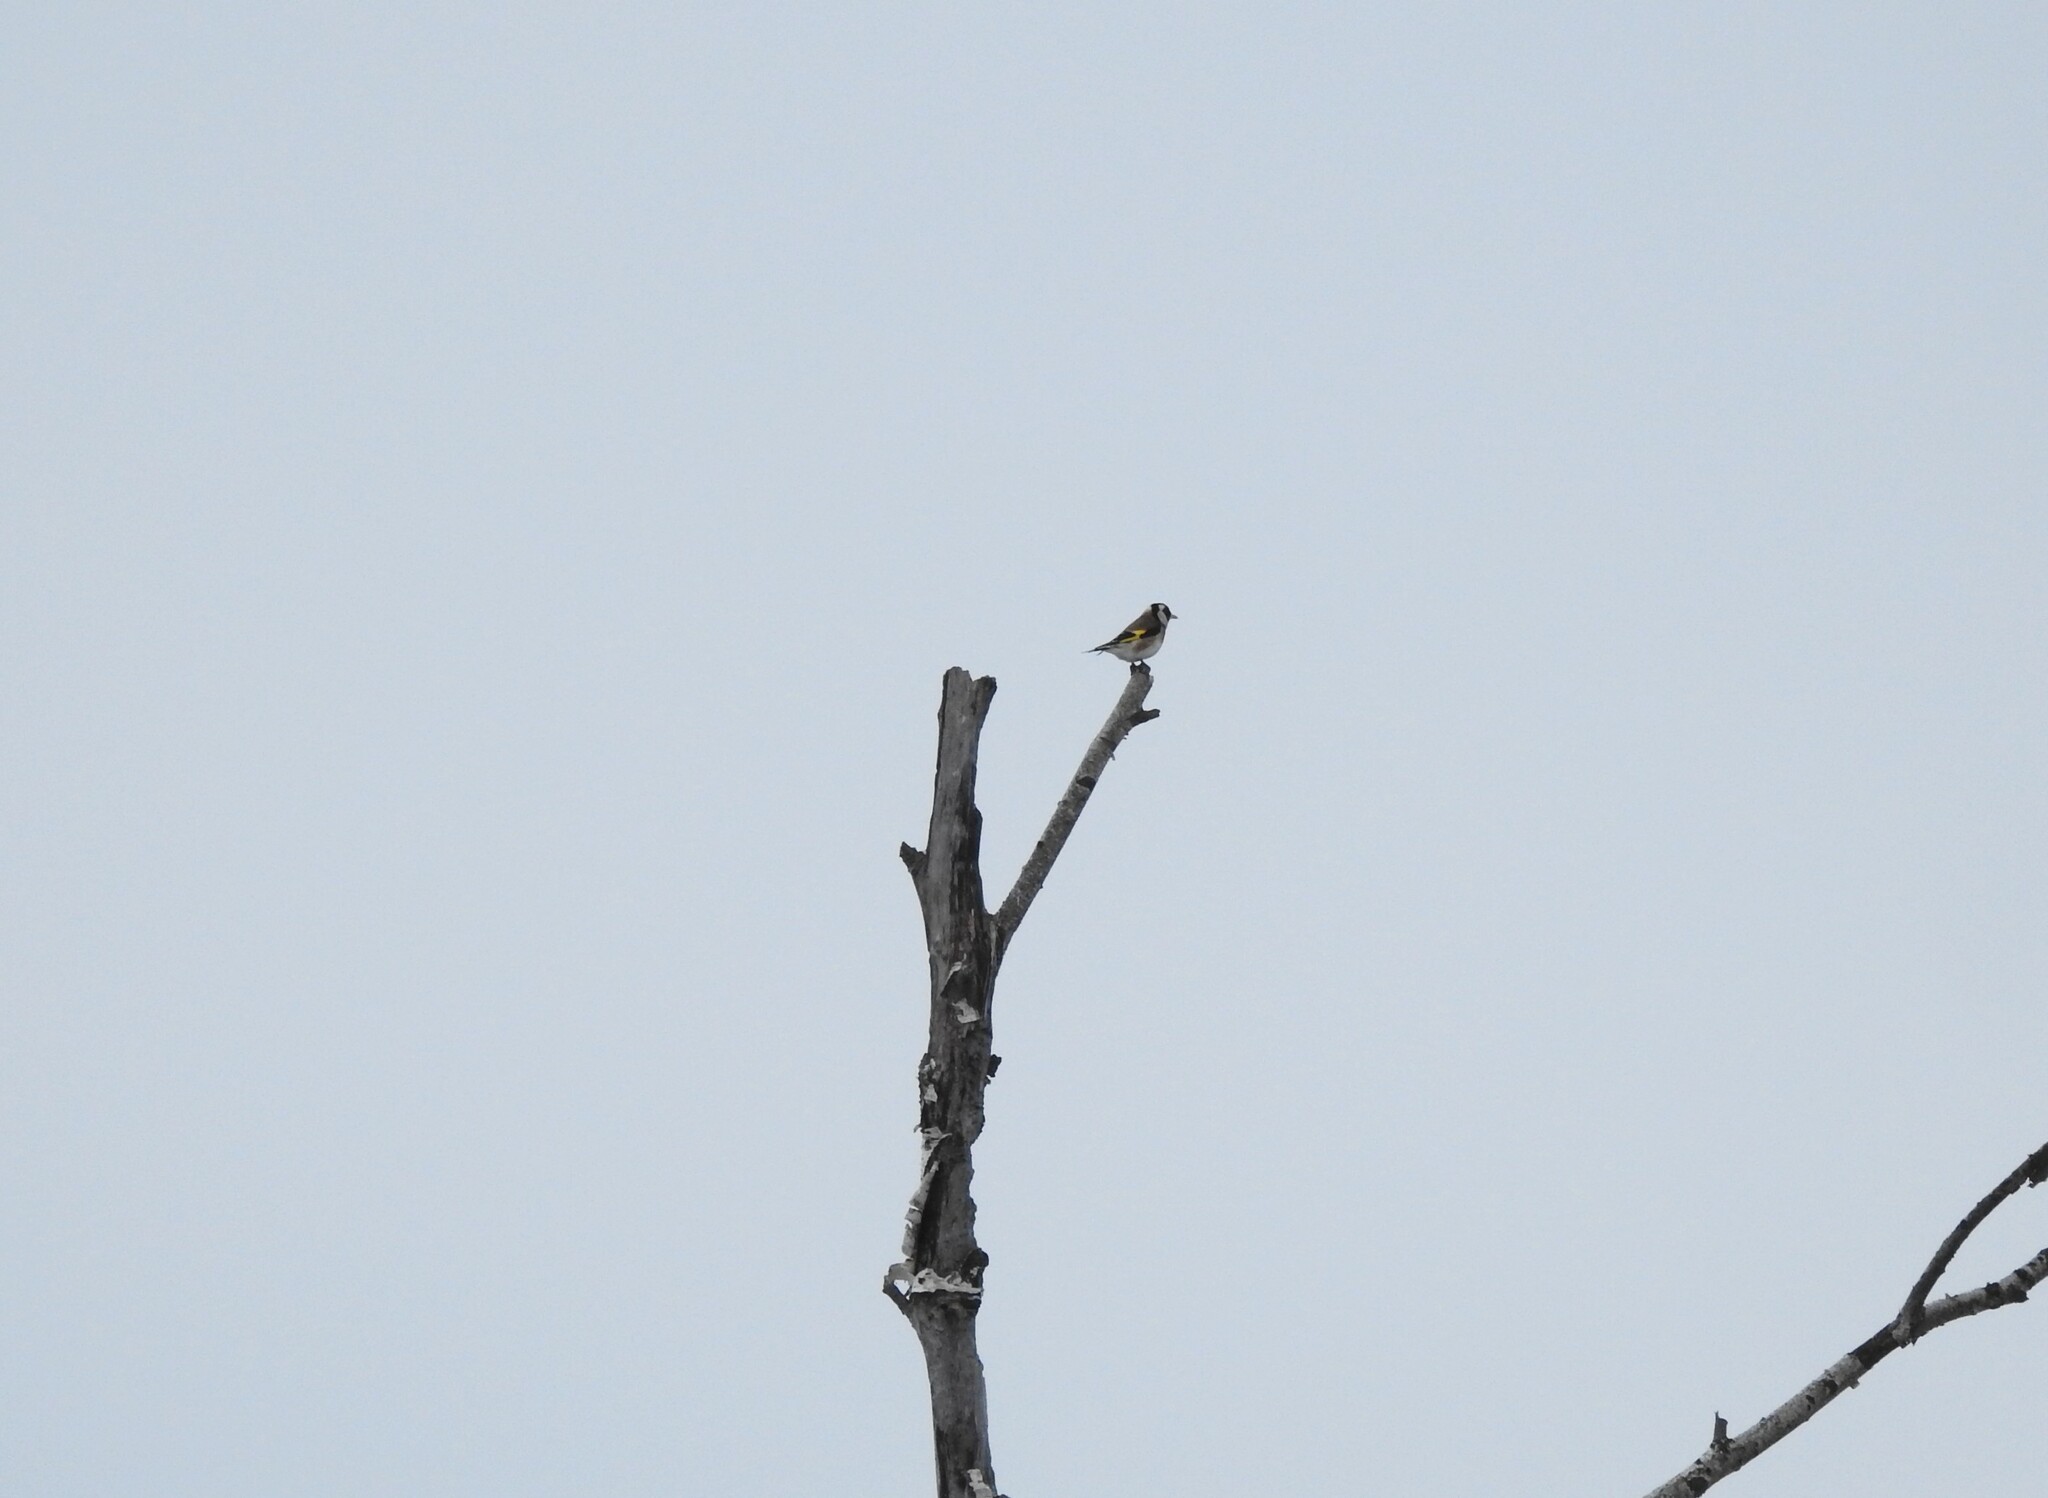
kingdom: Animalia
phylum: Chordata
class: Aves
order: Passeriformes
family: Fringillidae
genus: Carduelis
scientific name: Carduelis carduelis
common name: European goldfinch
